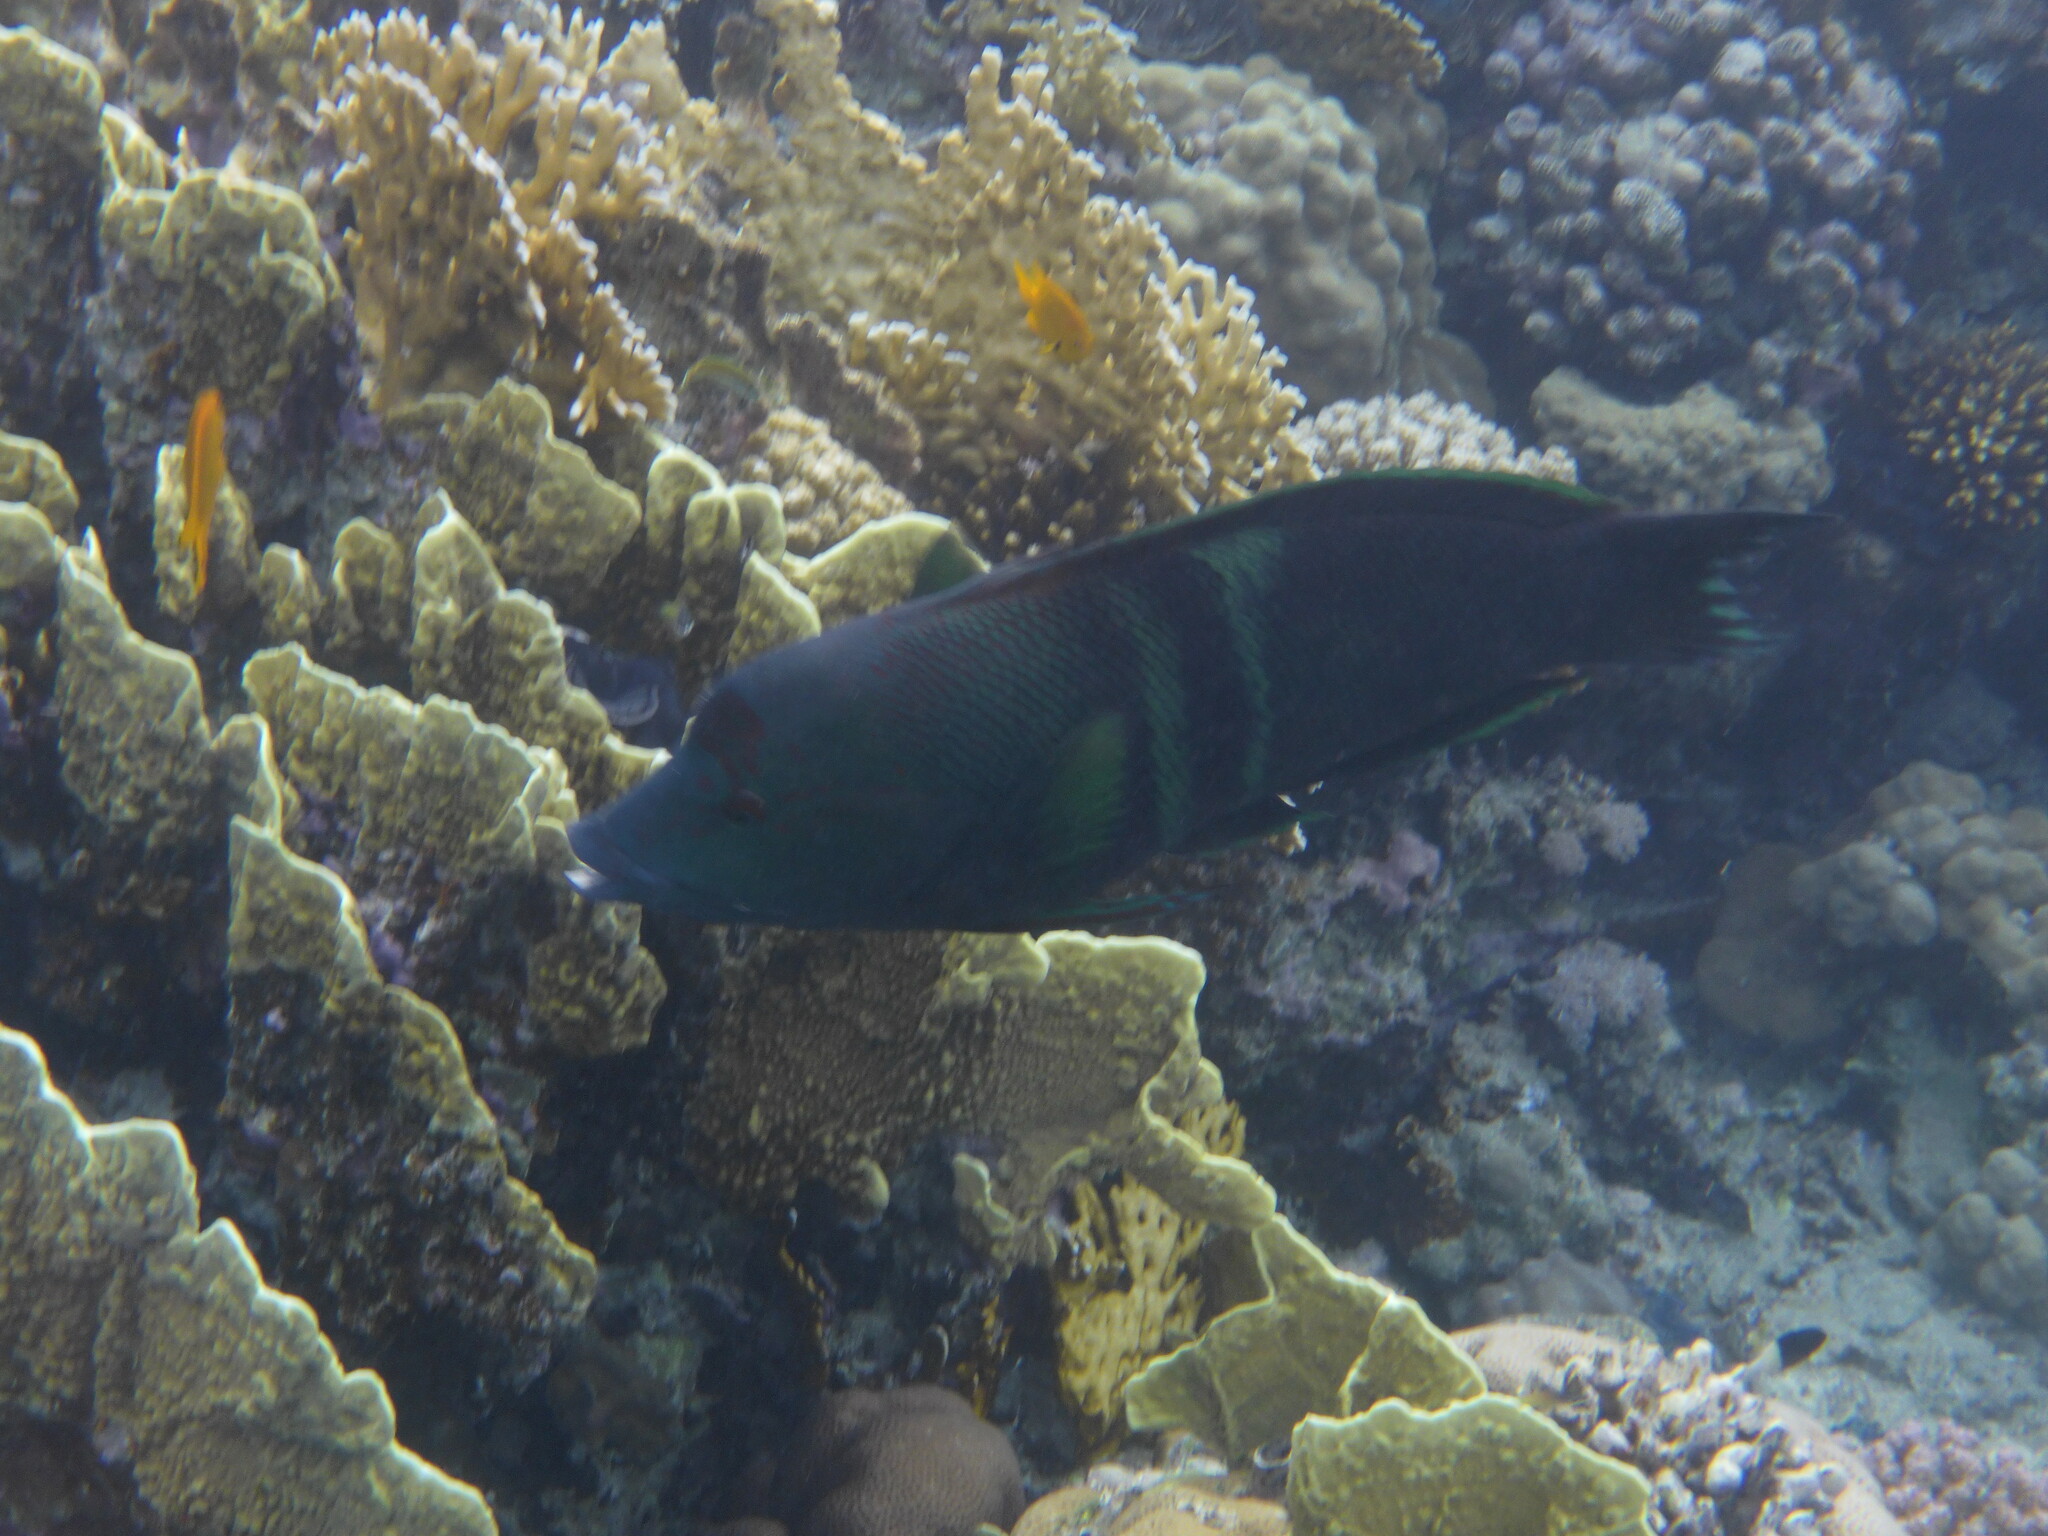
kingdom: Animalia
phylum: Chordata
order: Perciformes
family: Labridae
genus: Coris
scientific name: Coris aygula
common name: Clown coris
